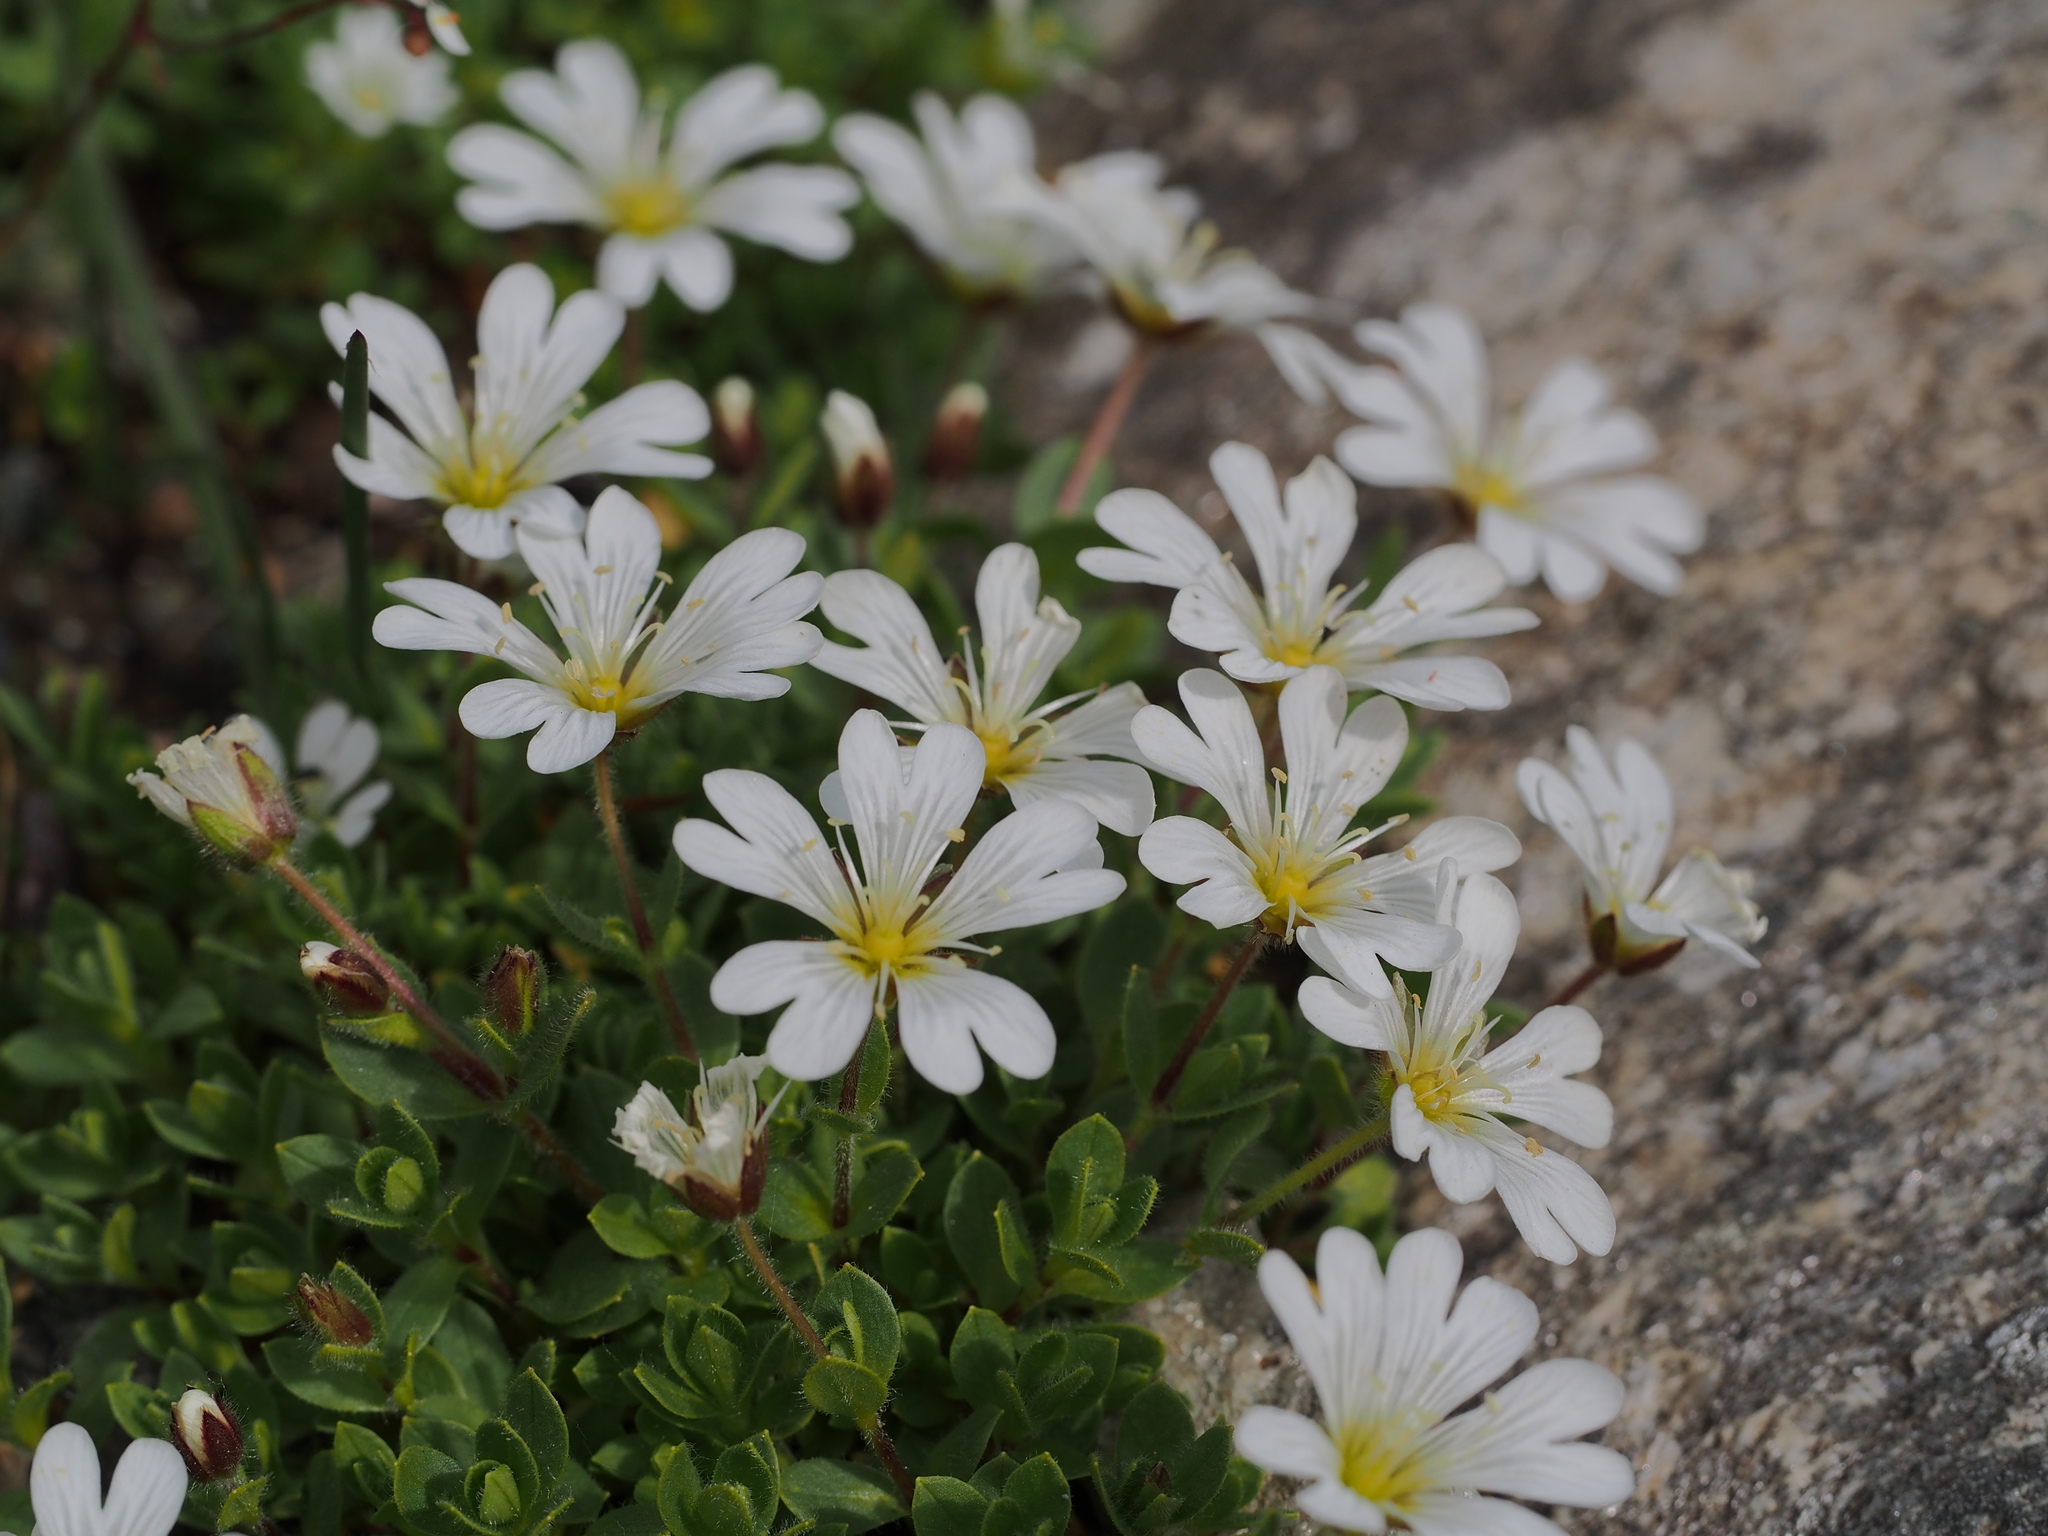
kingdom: Plantae
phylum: Tracheophyta
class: Magnoliopsida
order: Caryophyllales
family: Caryophyllaceae
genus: Cerastium
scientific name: Cerastium uniflorum
